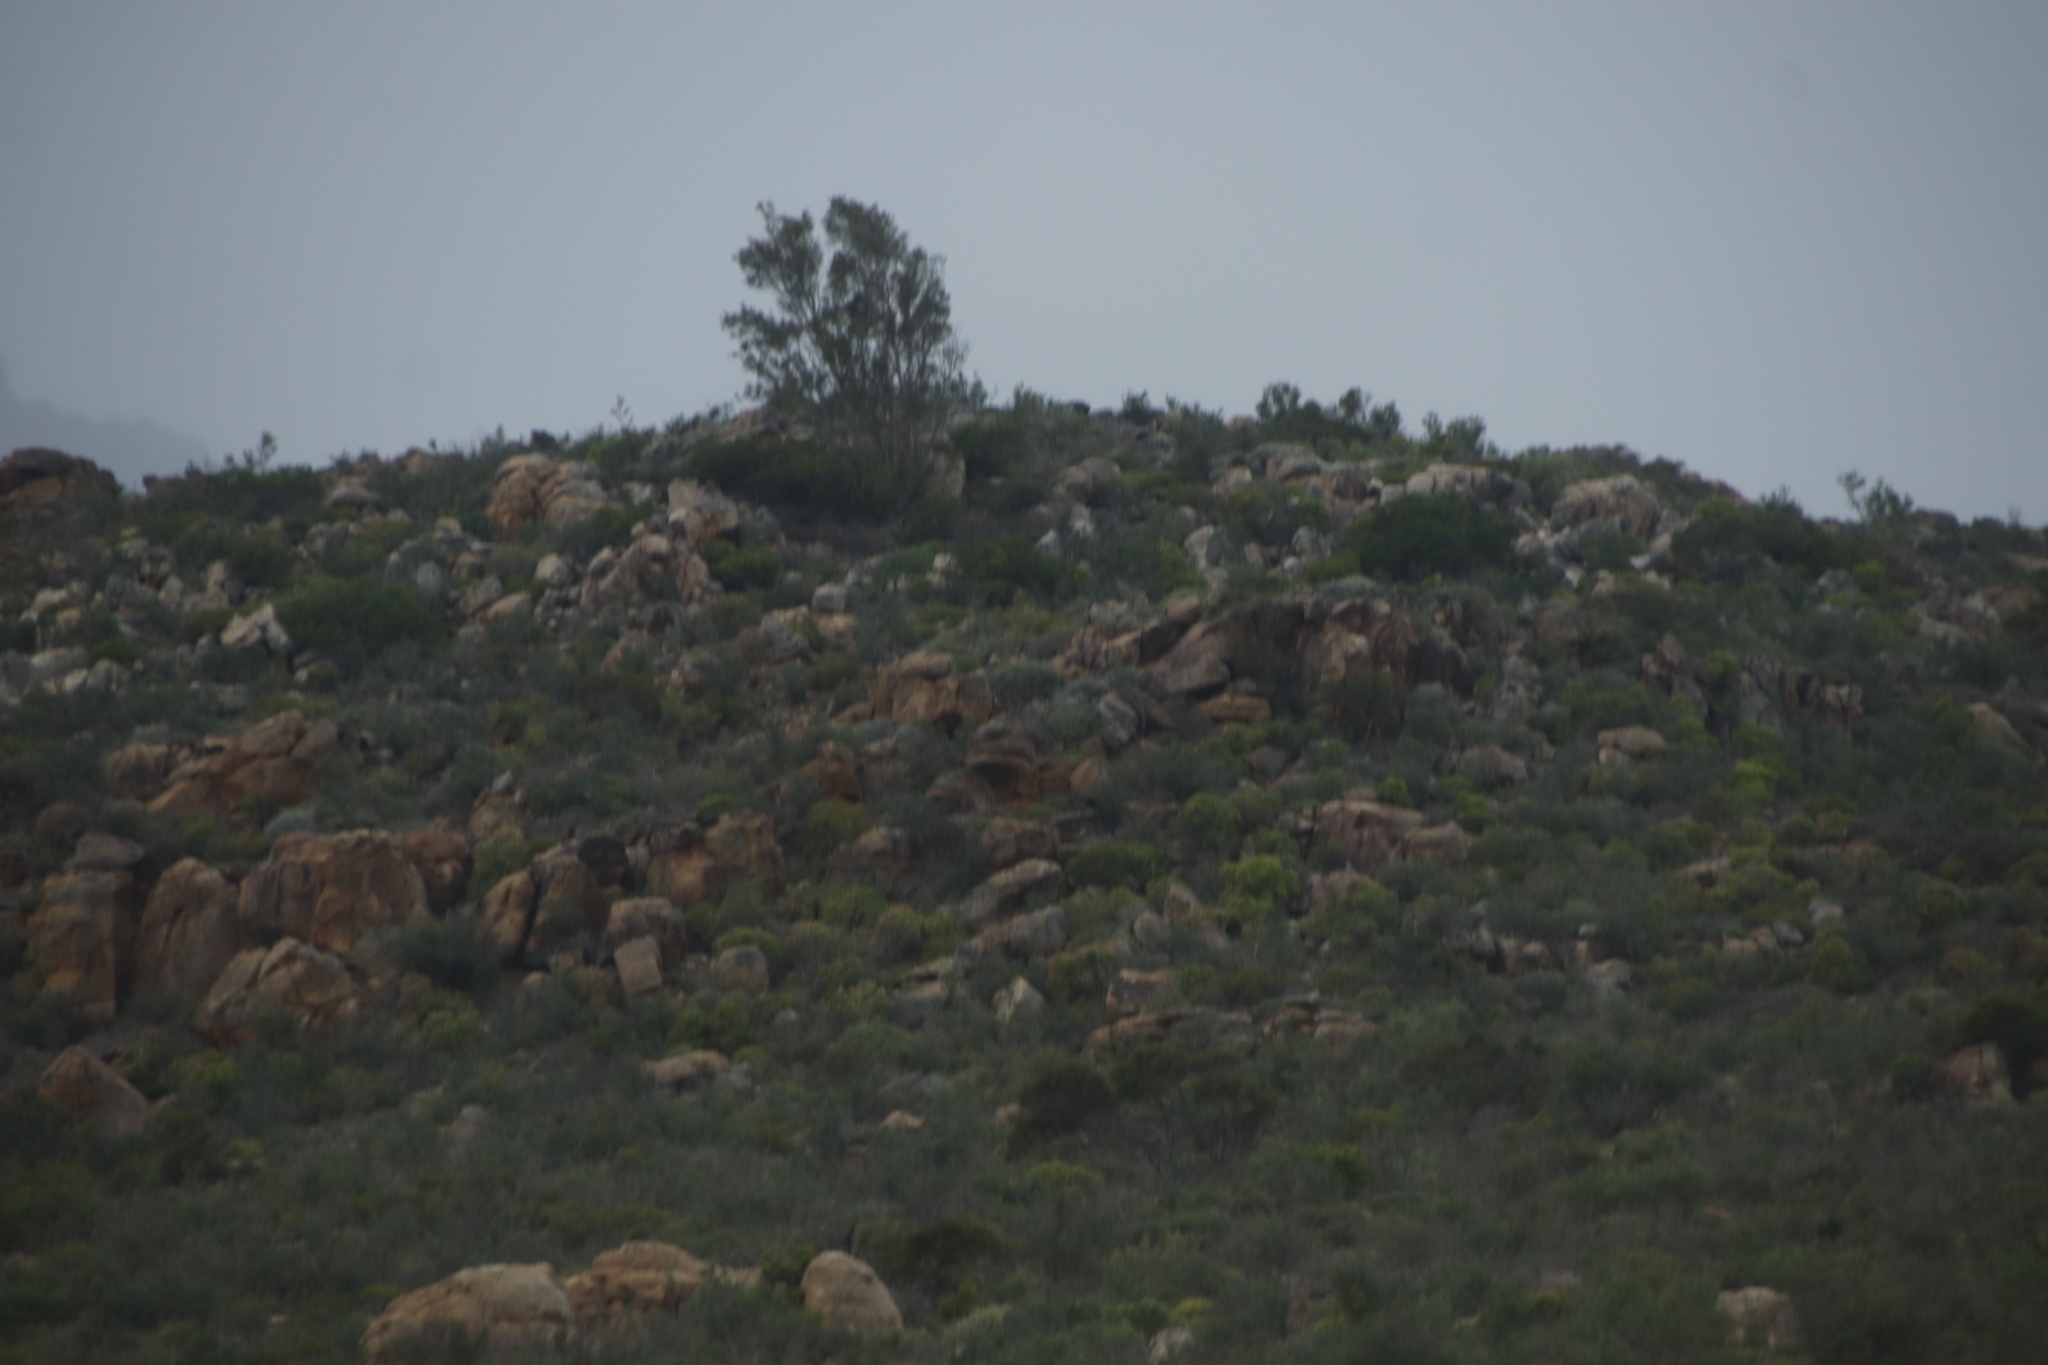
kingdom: Plantae
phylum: Tracheophyta
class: Magnoliopsida
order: Rosales
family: Moraceae
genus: Ficus
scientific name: Ficus cordata
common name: Namaqua rock fig
